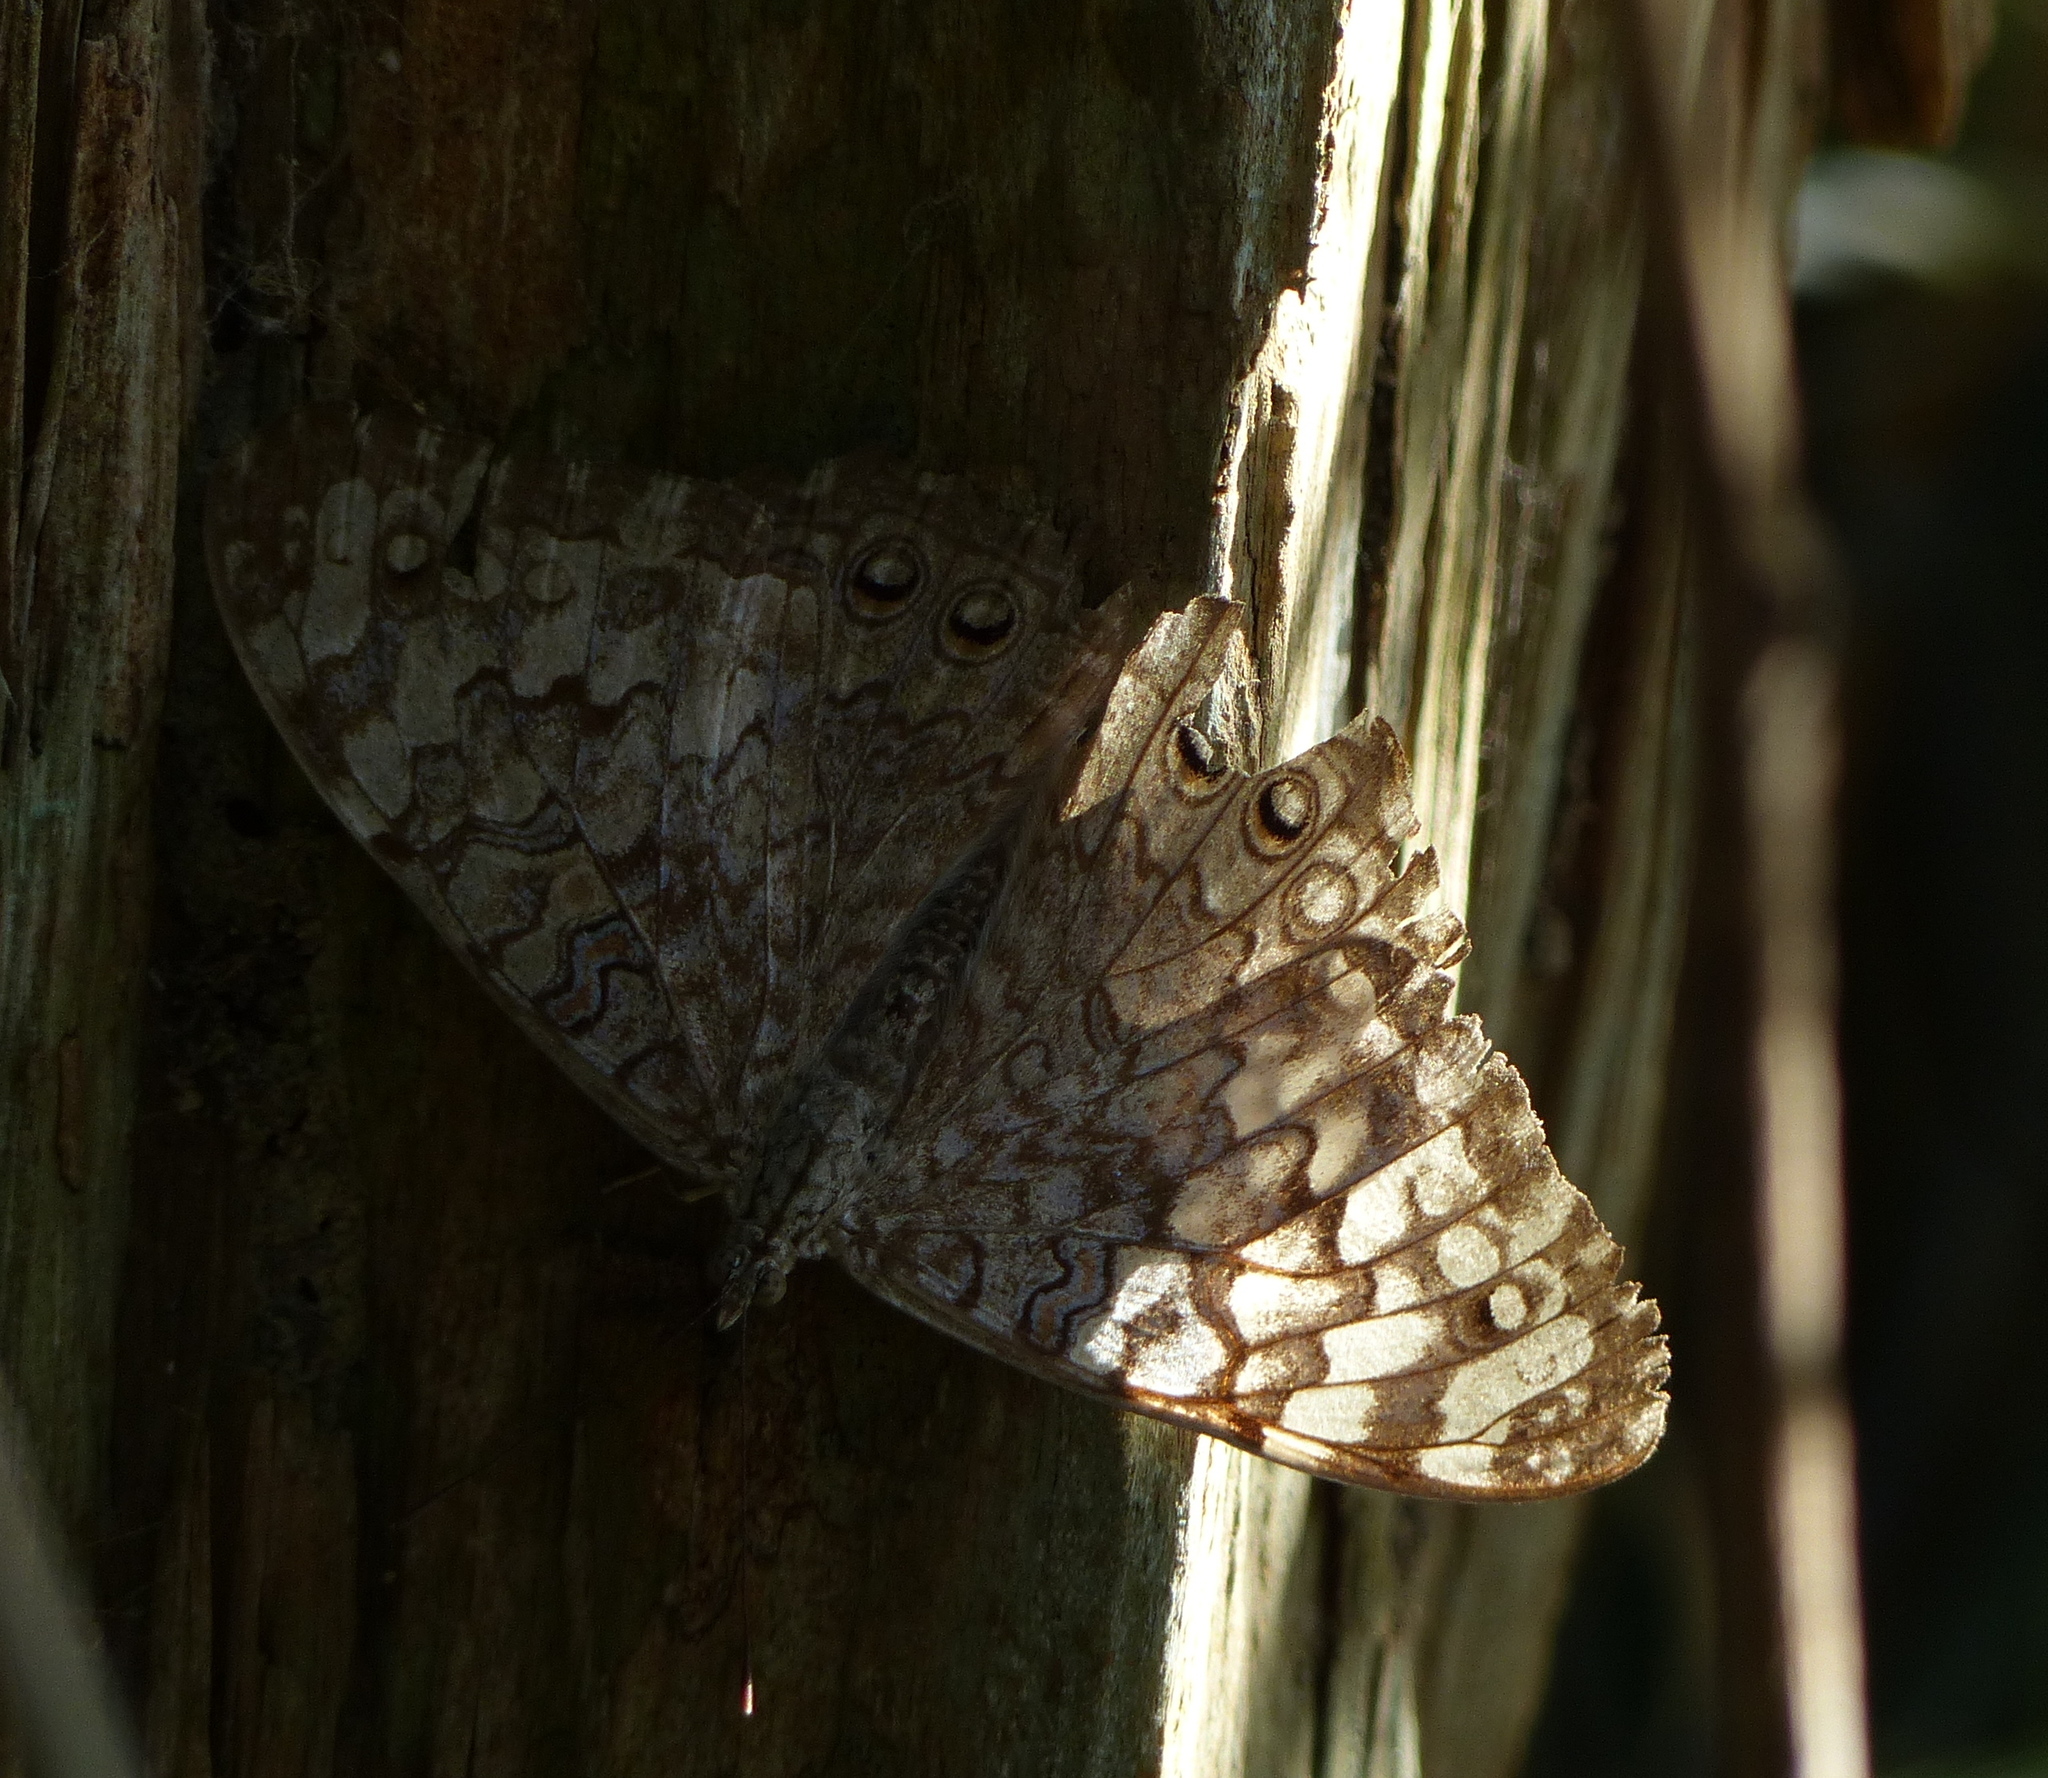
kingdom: Animalia
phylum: Arthropoda
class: Insecta
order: Lepidoptera
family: Nymphalidae
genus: Hamadryas
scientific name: Hamadryas februa
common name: Gray cracker
